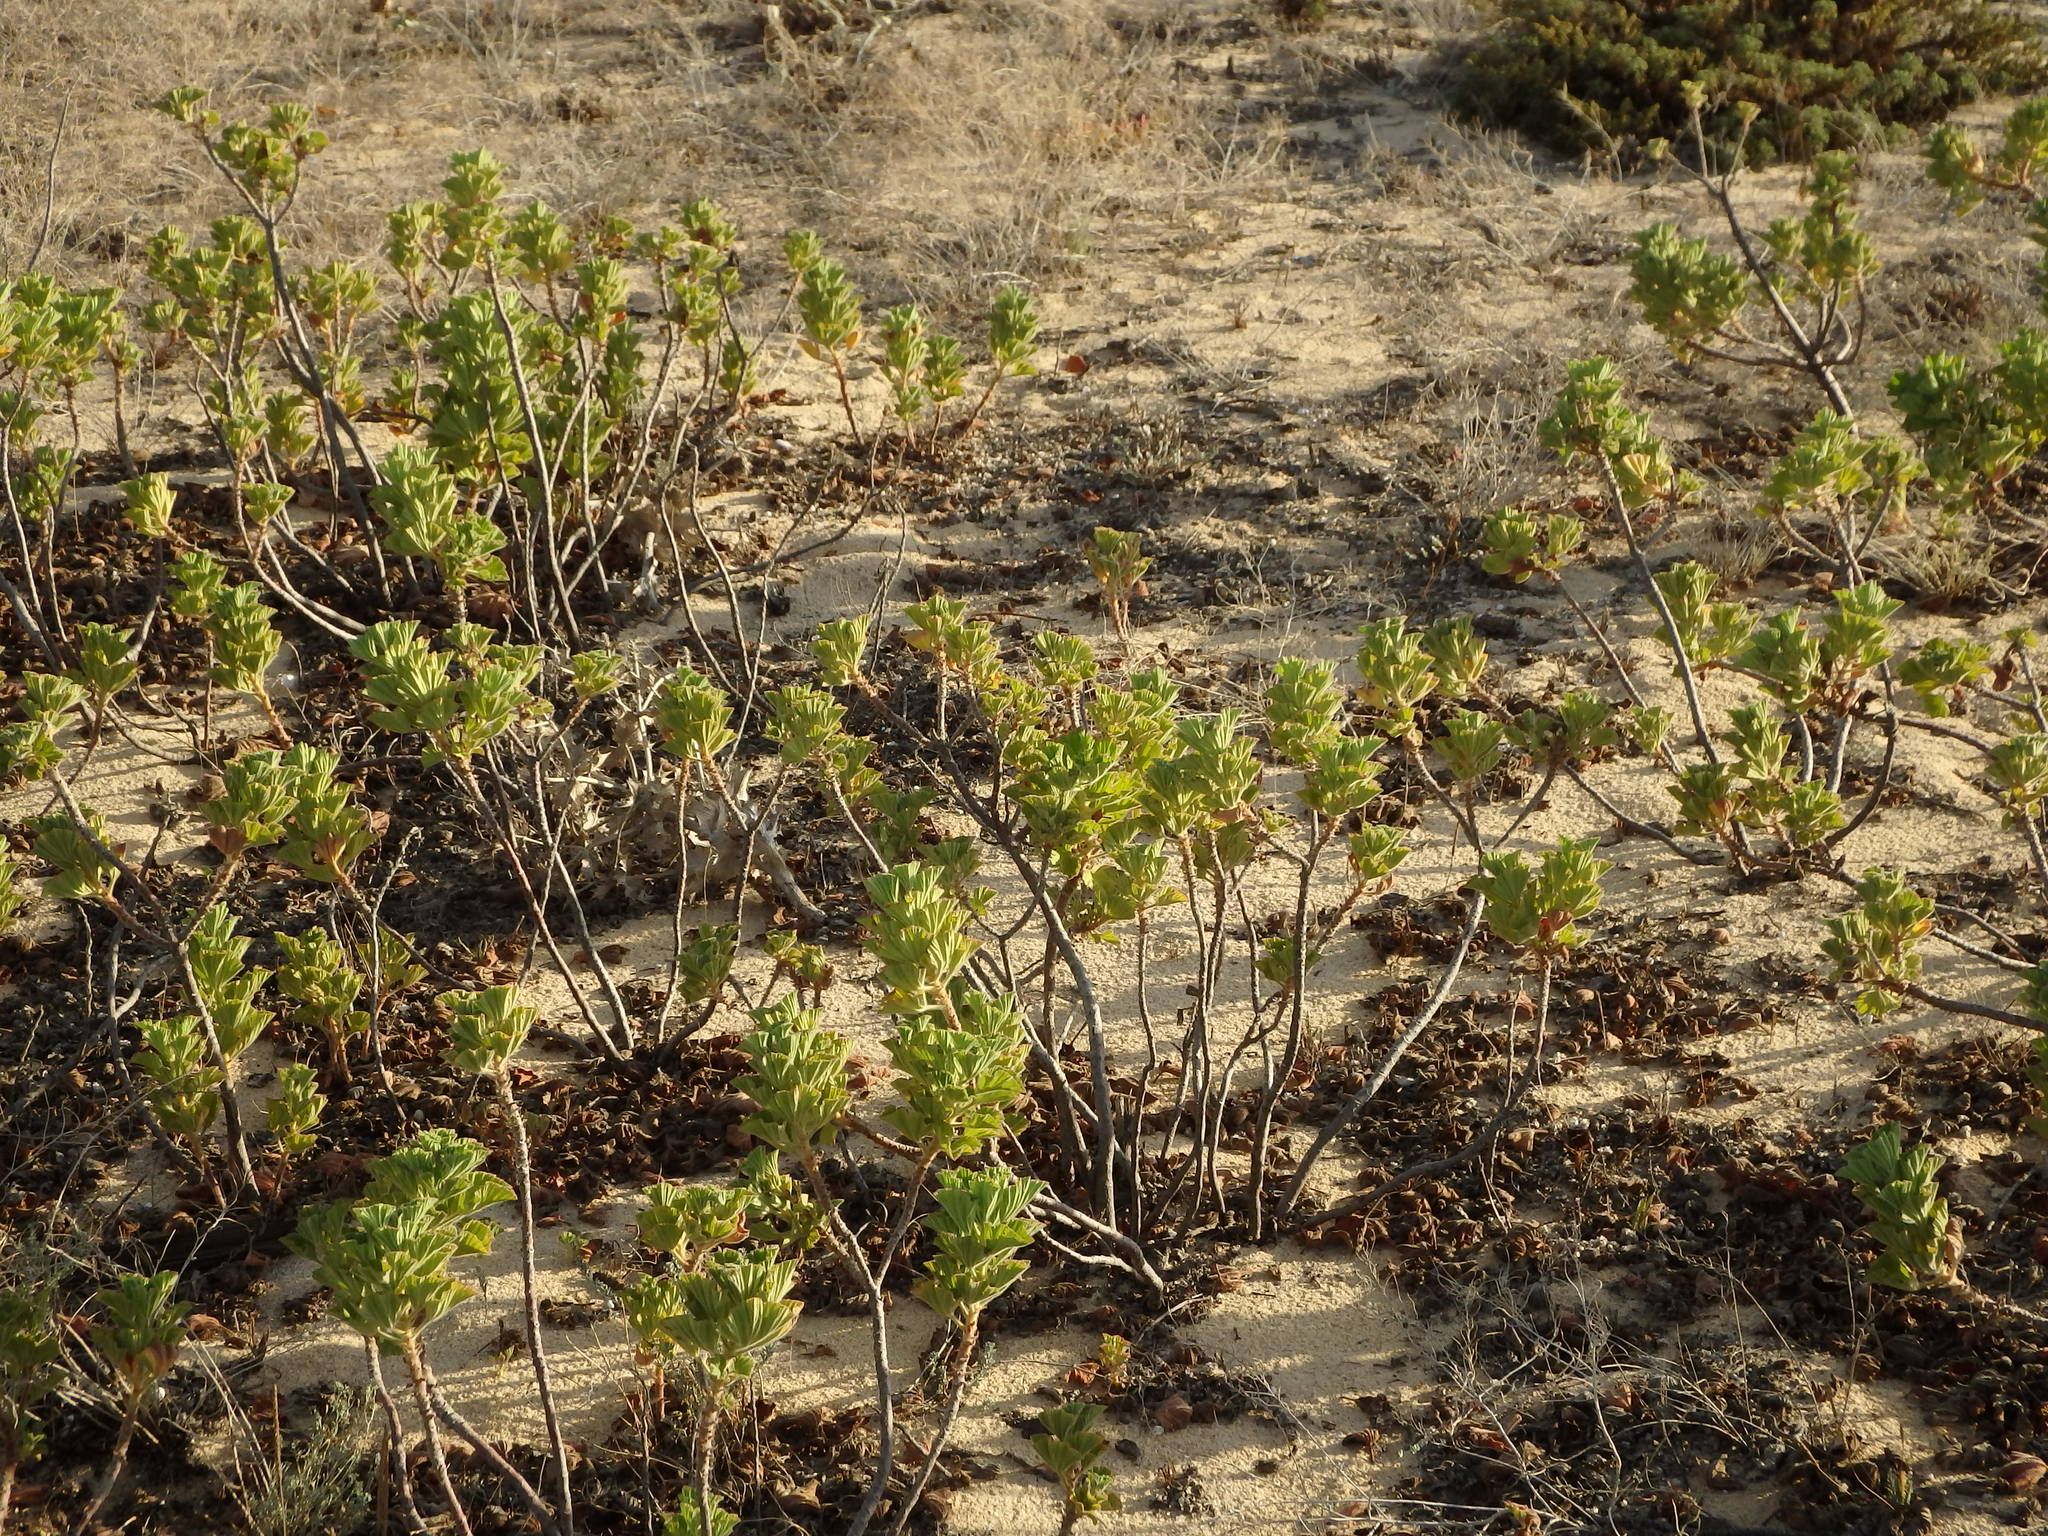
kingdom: Plantae
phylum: Tracheophyta
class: Magnoliopsida
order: Geraniales
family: Geraniaceae
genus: Pelargonium
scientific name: Pelargonium cucullatum
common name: Tree pelargonium
